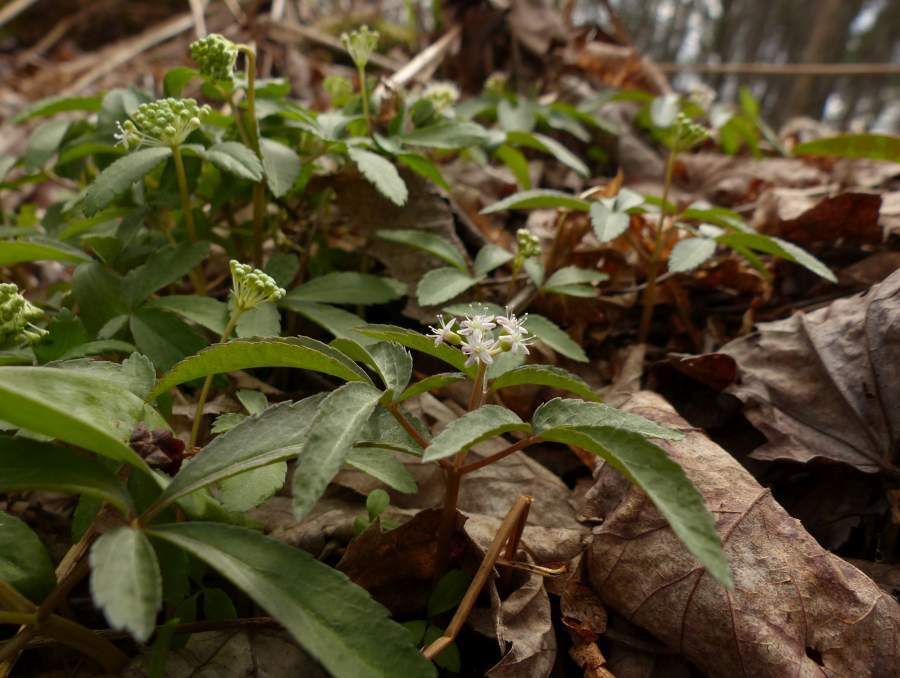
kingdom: Plantae
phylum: Tracheophyta
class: Magnoliopsida
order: Apiales
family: Araliaceae
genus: Panax
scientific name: Panax trifolius
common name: Dwarf ginseng
